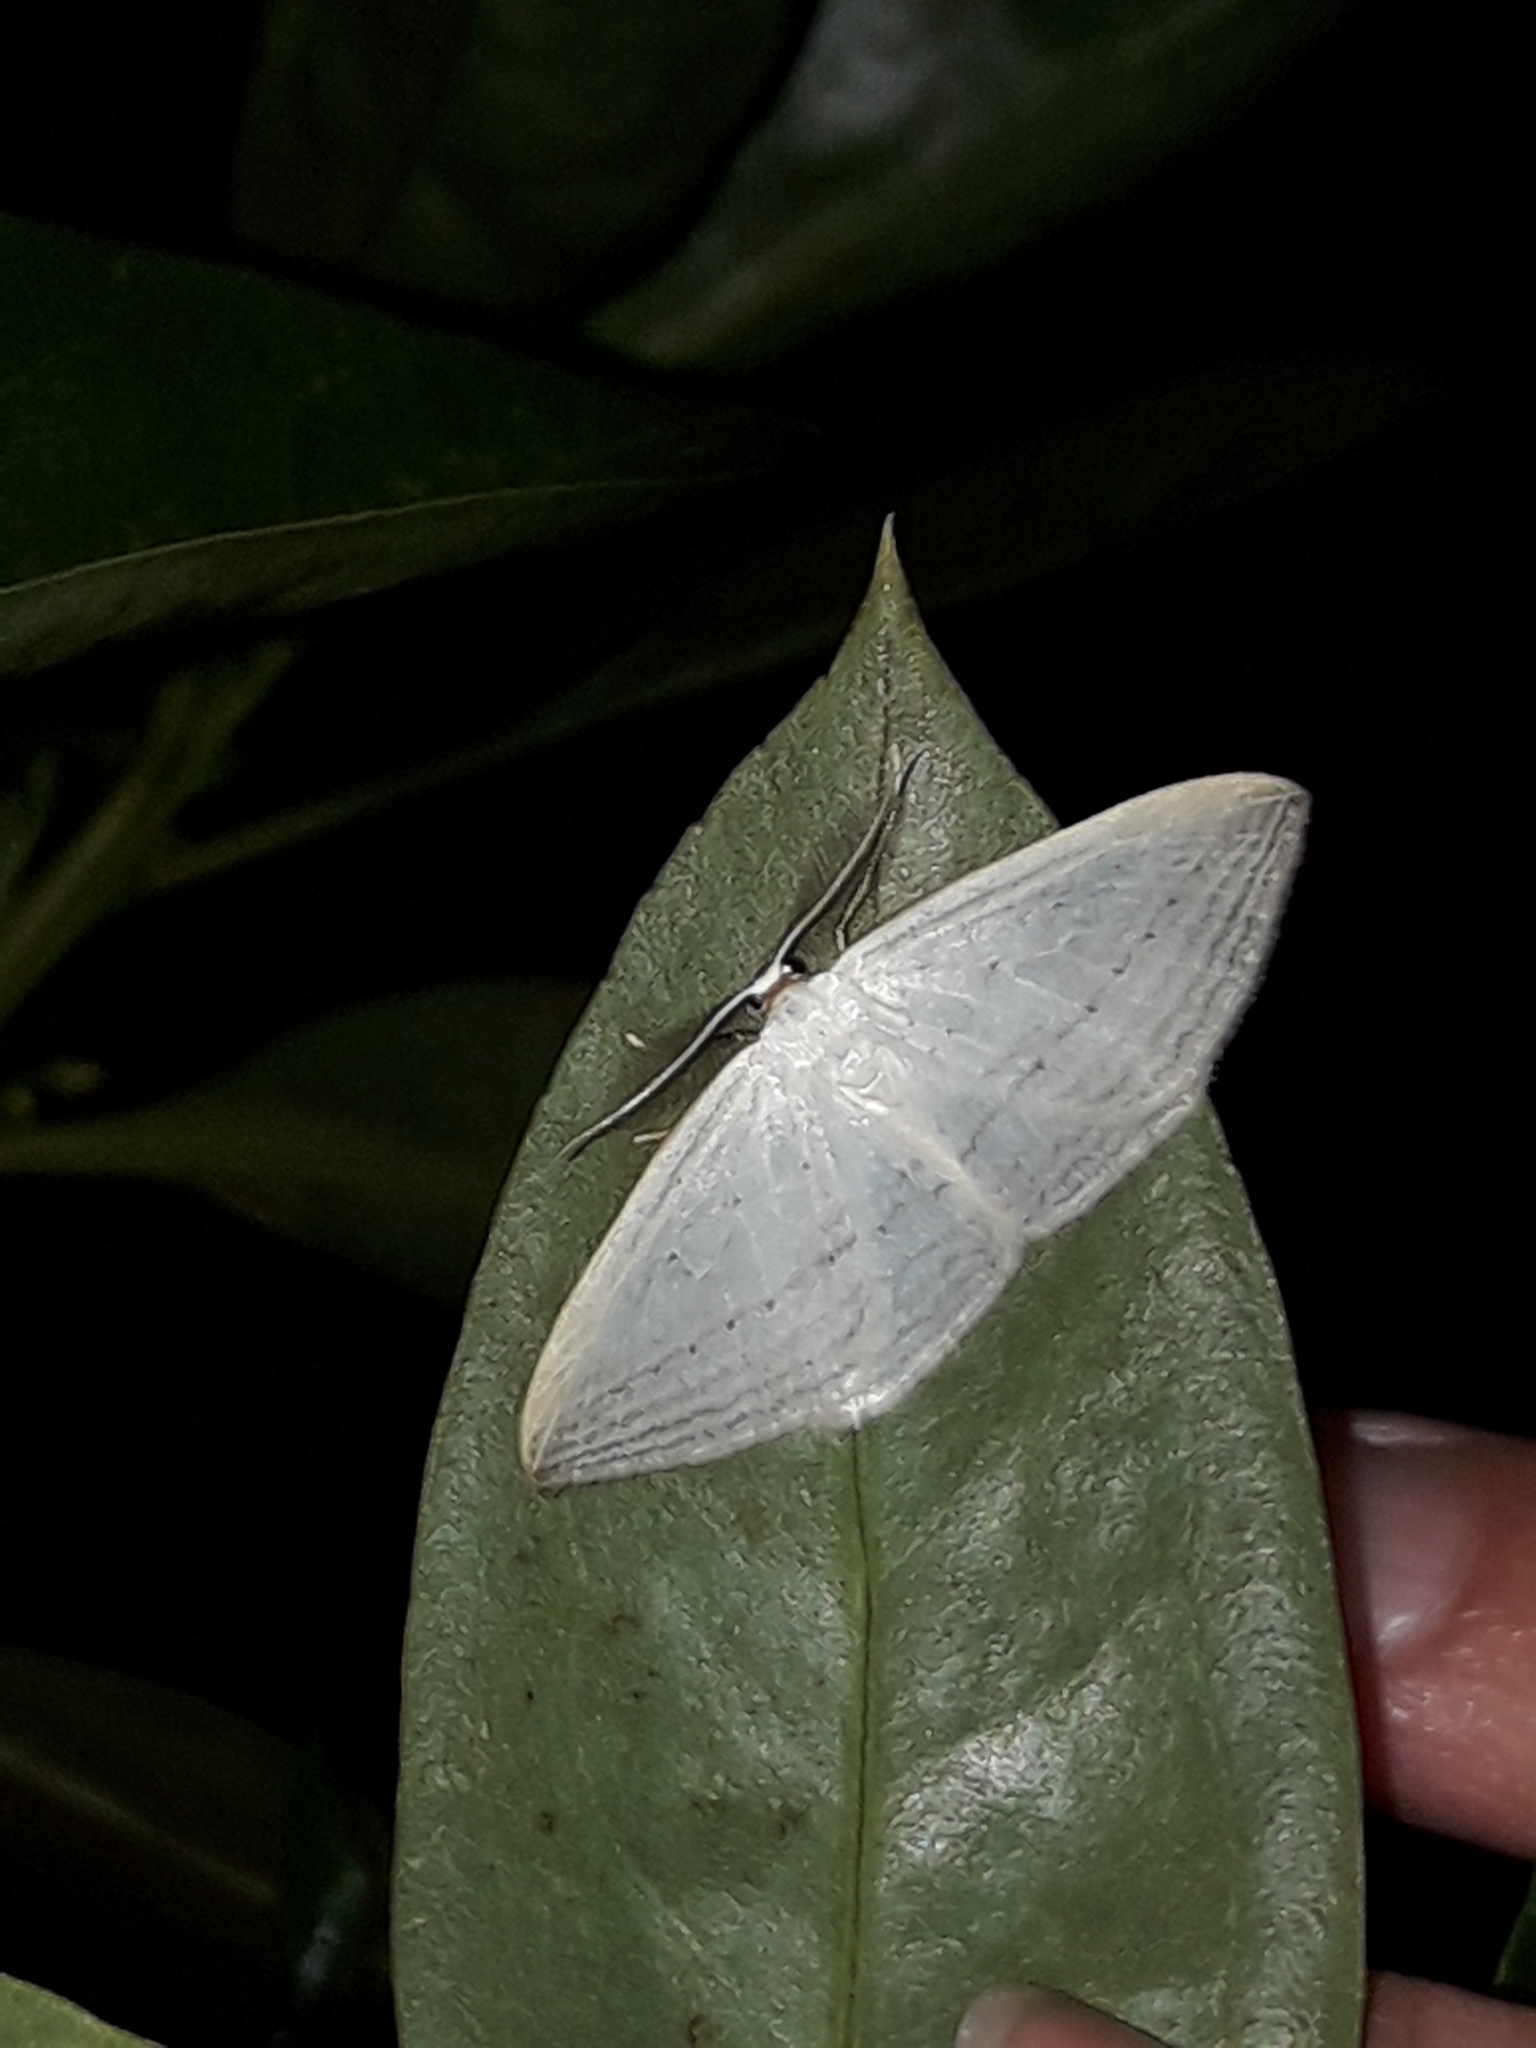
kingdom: Animalia
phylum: Arthropoda
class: Insecta
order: Lepidoptera
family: Geometridae
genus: Orthoclydon
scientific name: Orthoclydon praefectata
